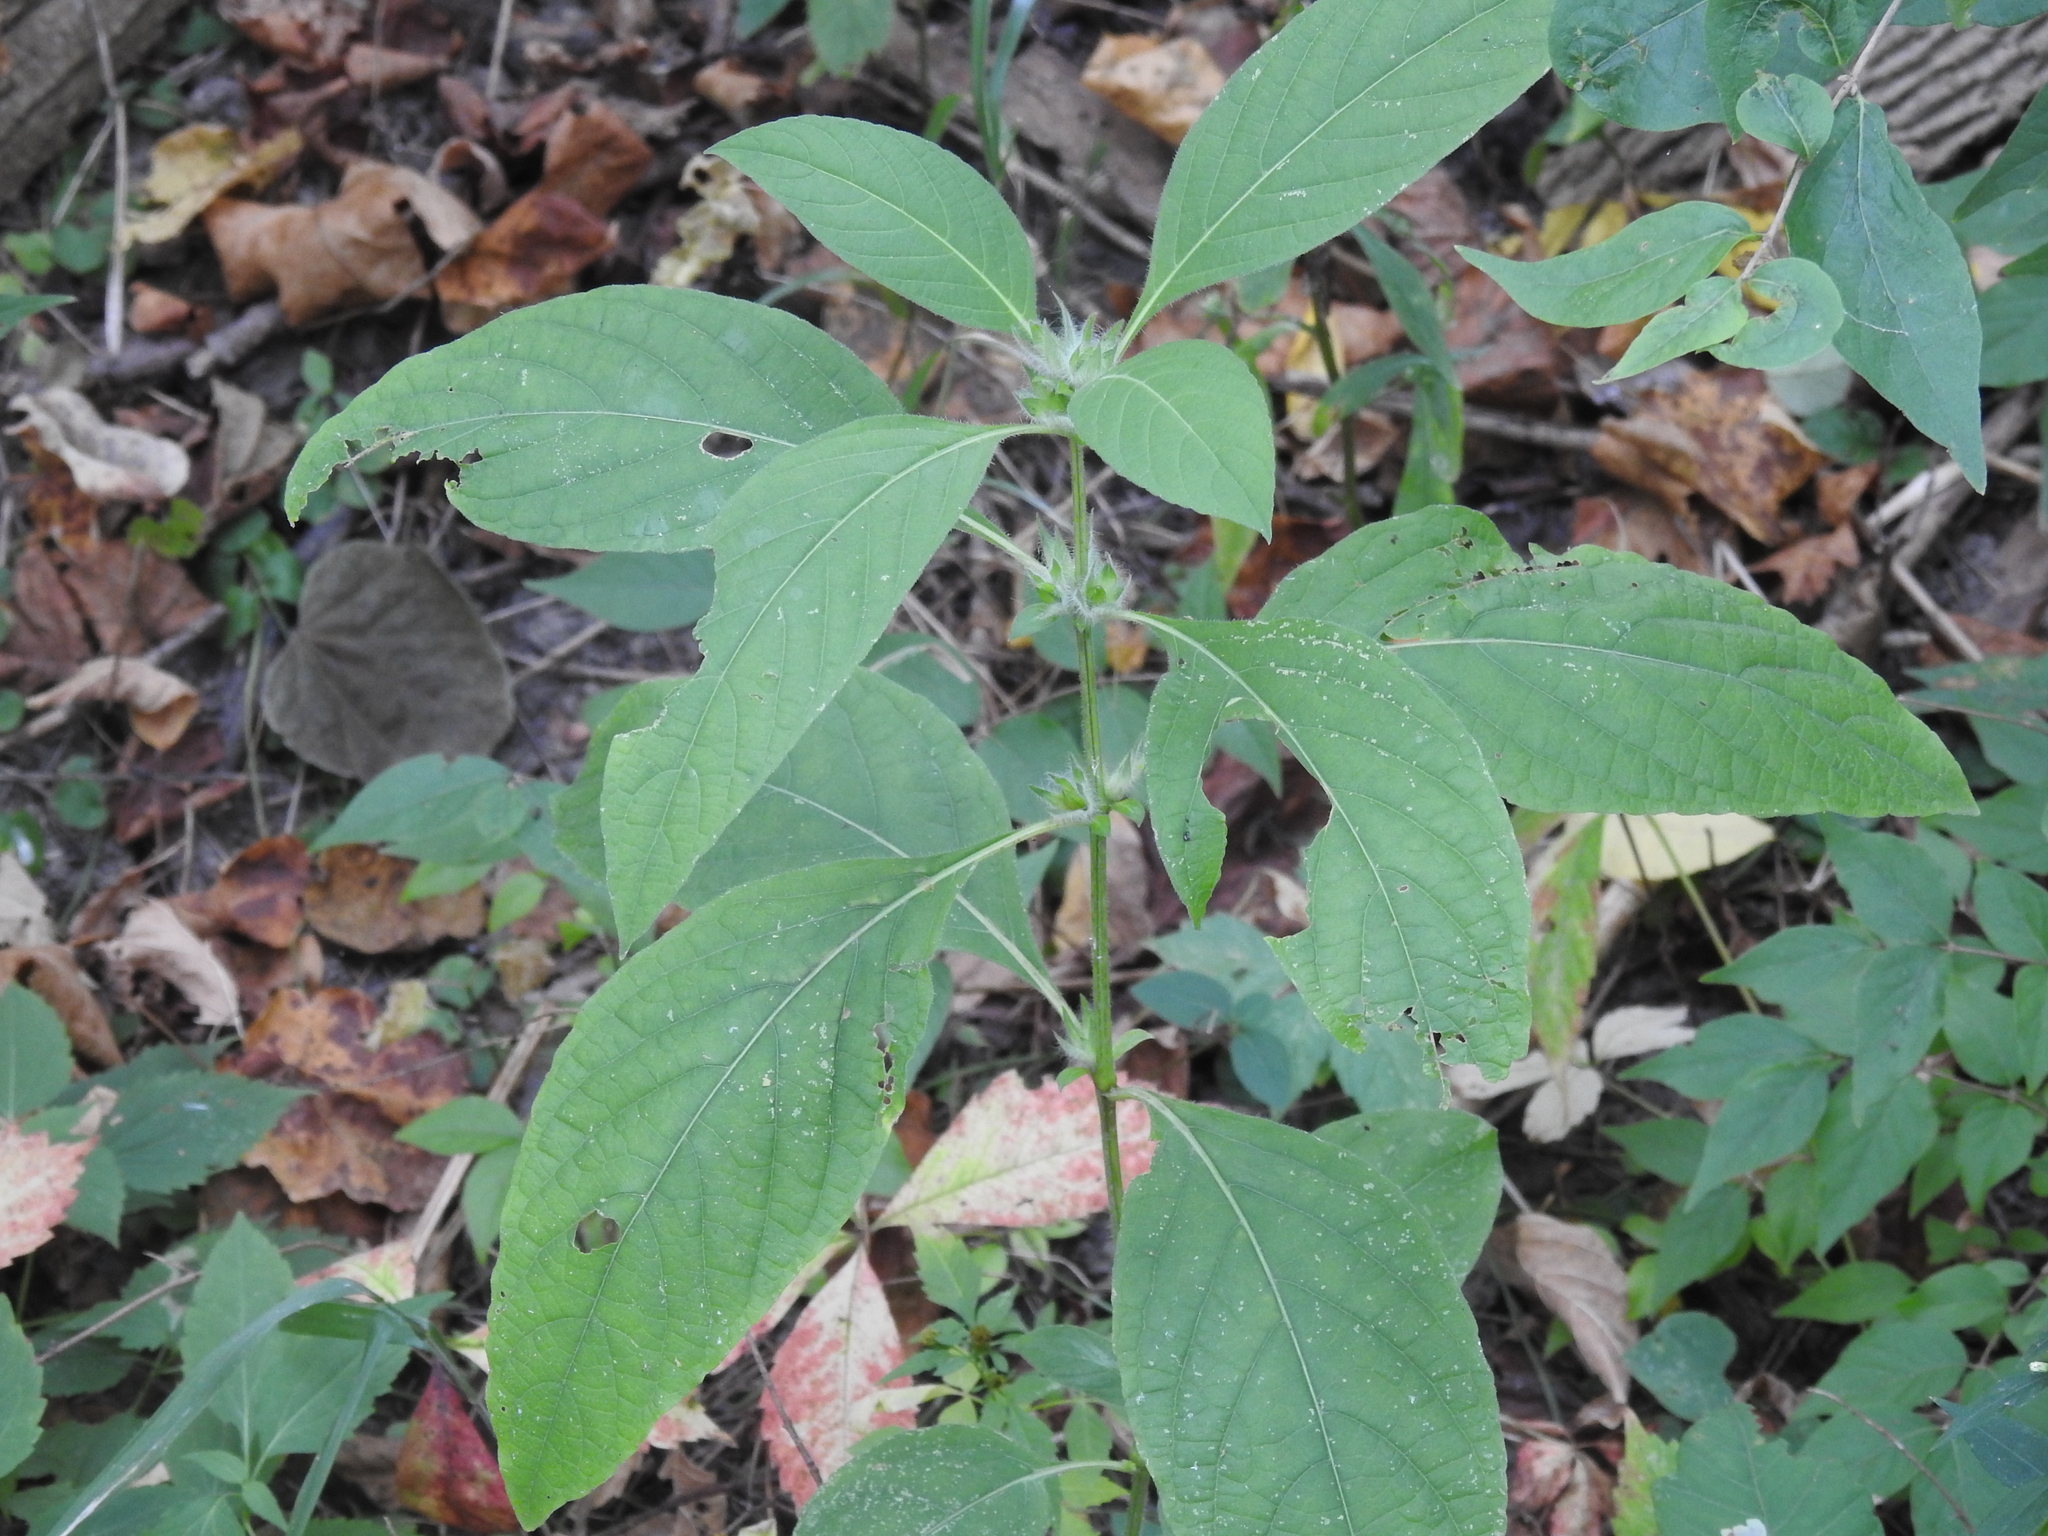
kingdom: Plantae
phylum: Tracheophyta
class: Magnoliopsida
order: Lamiales
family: Acanthaceae
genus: Ruellia
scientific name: Ruellia strepens
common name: Limestone wild petunia
